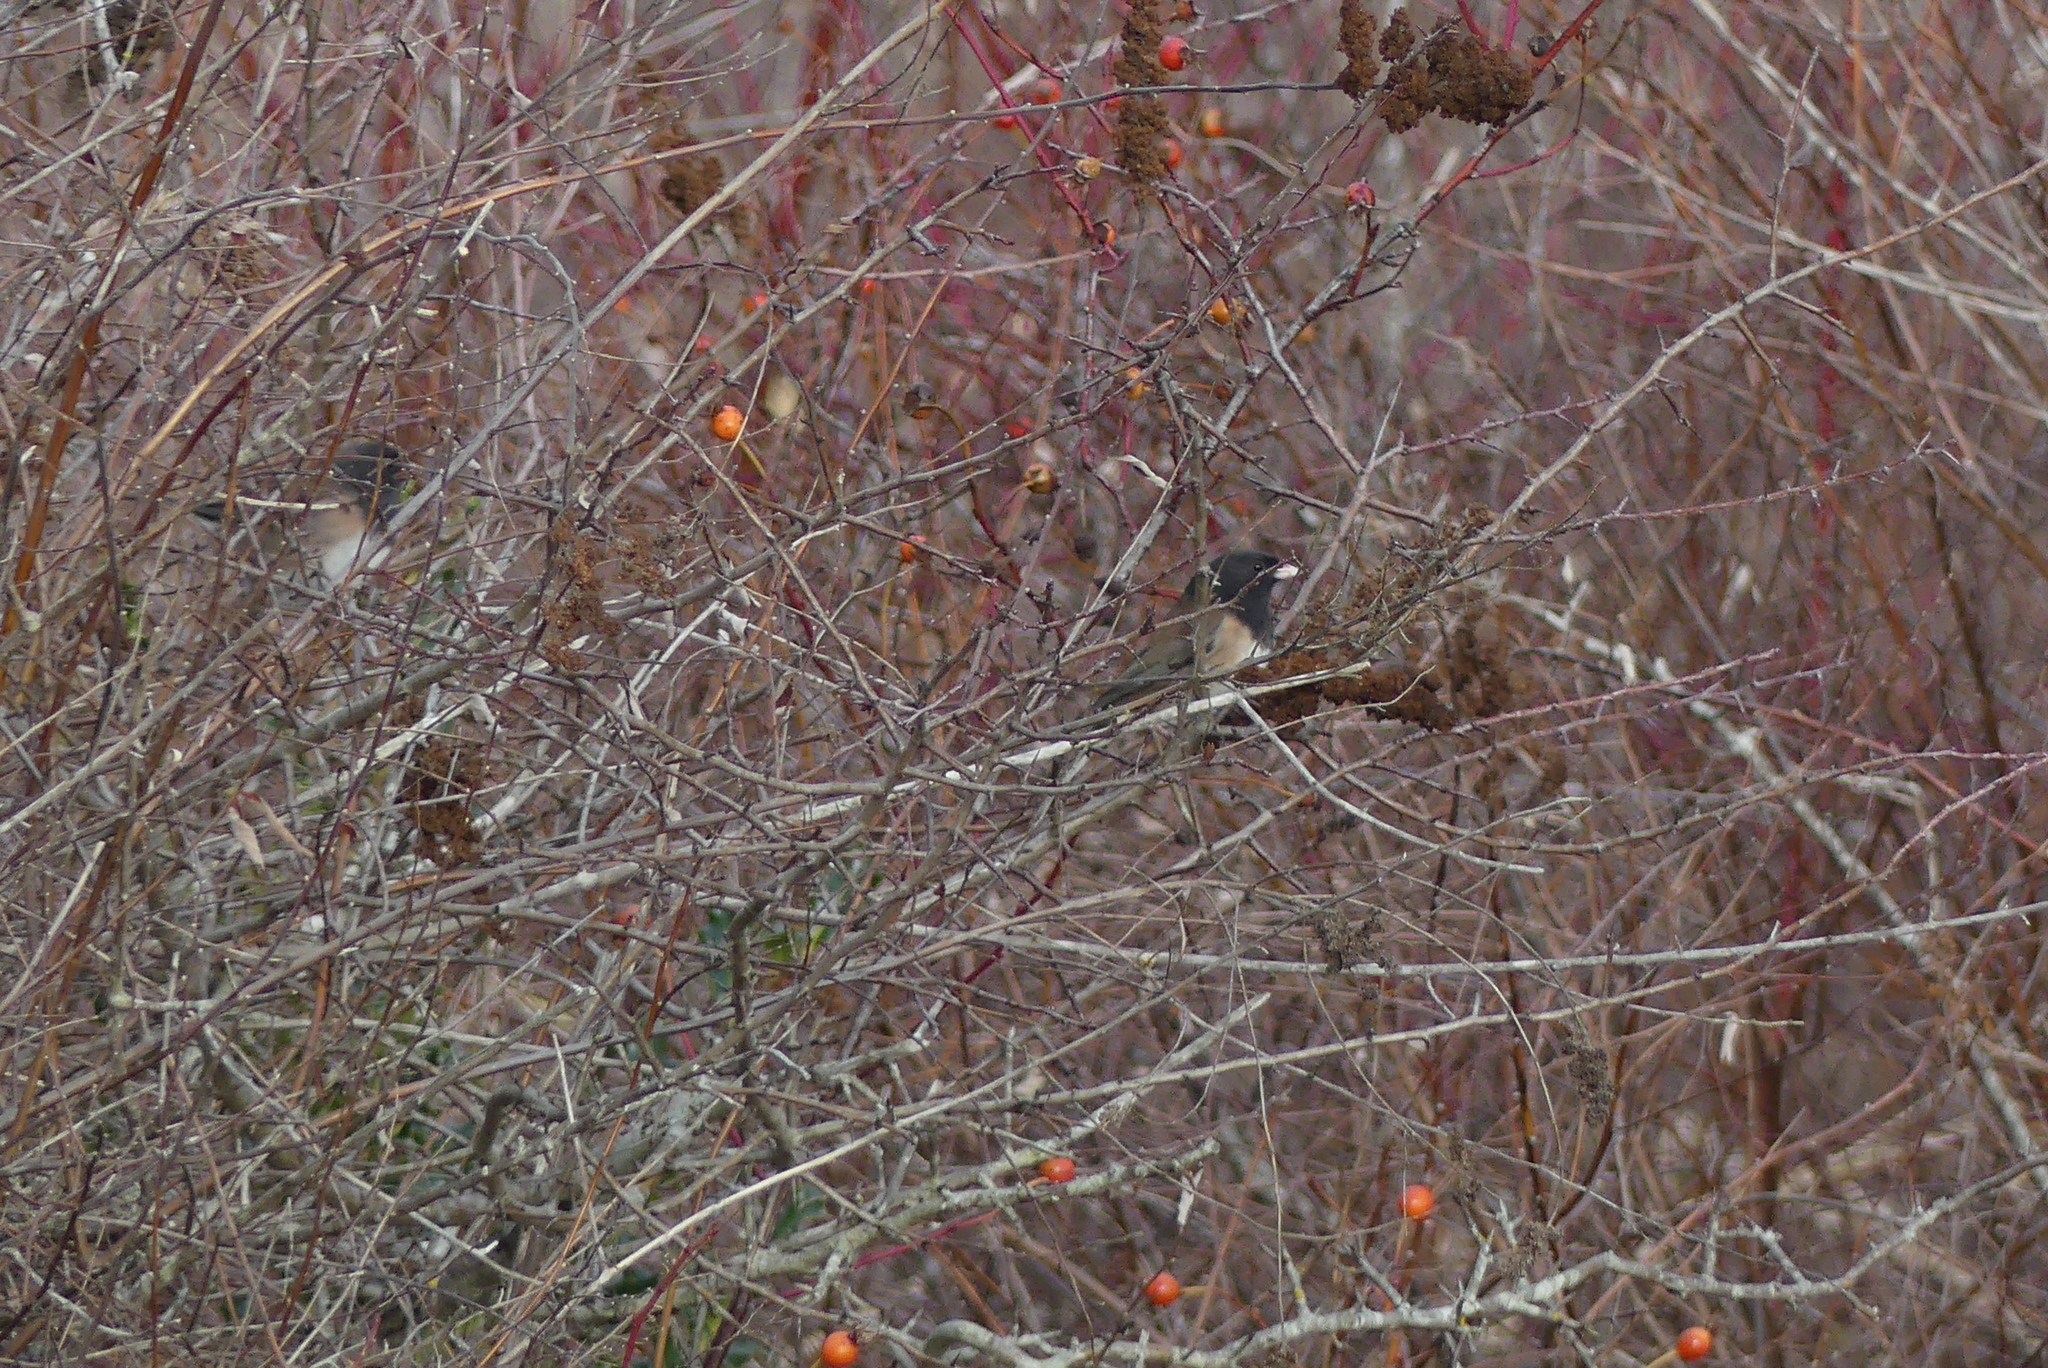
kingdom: Animalia
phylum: Chordata
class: Aves
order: Passeriformes
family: Passerellidae
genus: Junco
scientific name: Junco hyemalis
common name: Dark-eyed junco
